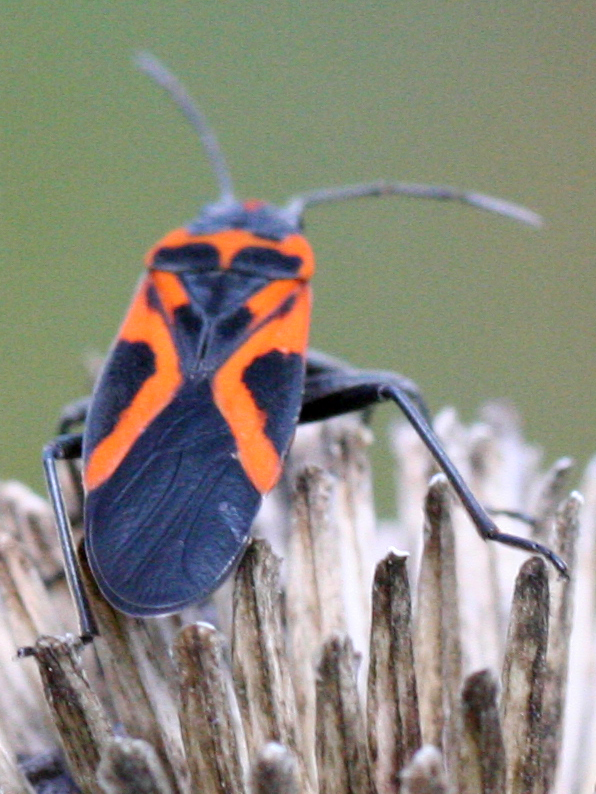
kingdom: Animalia
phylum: Arthropoda
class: Insecta
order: Hemiptera
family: Lygaeidae
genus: Lygaeus
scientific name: Lygaeus turcicus
